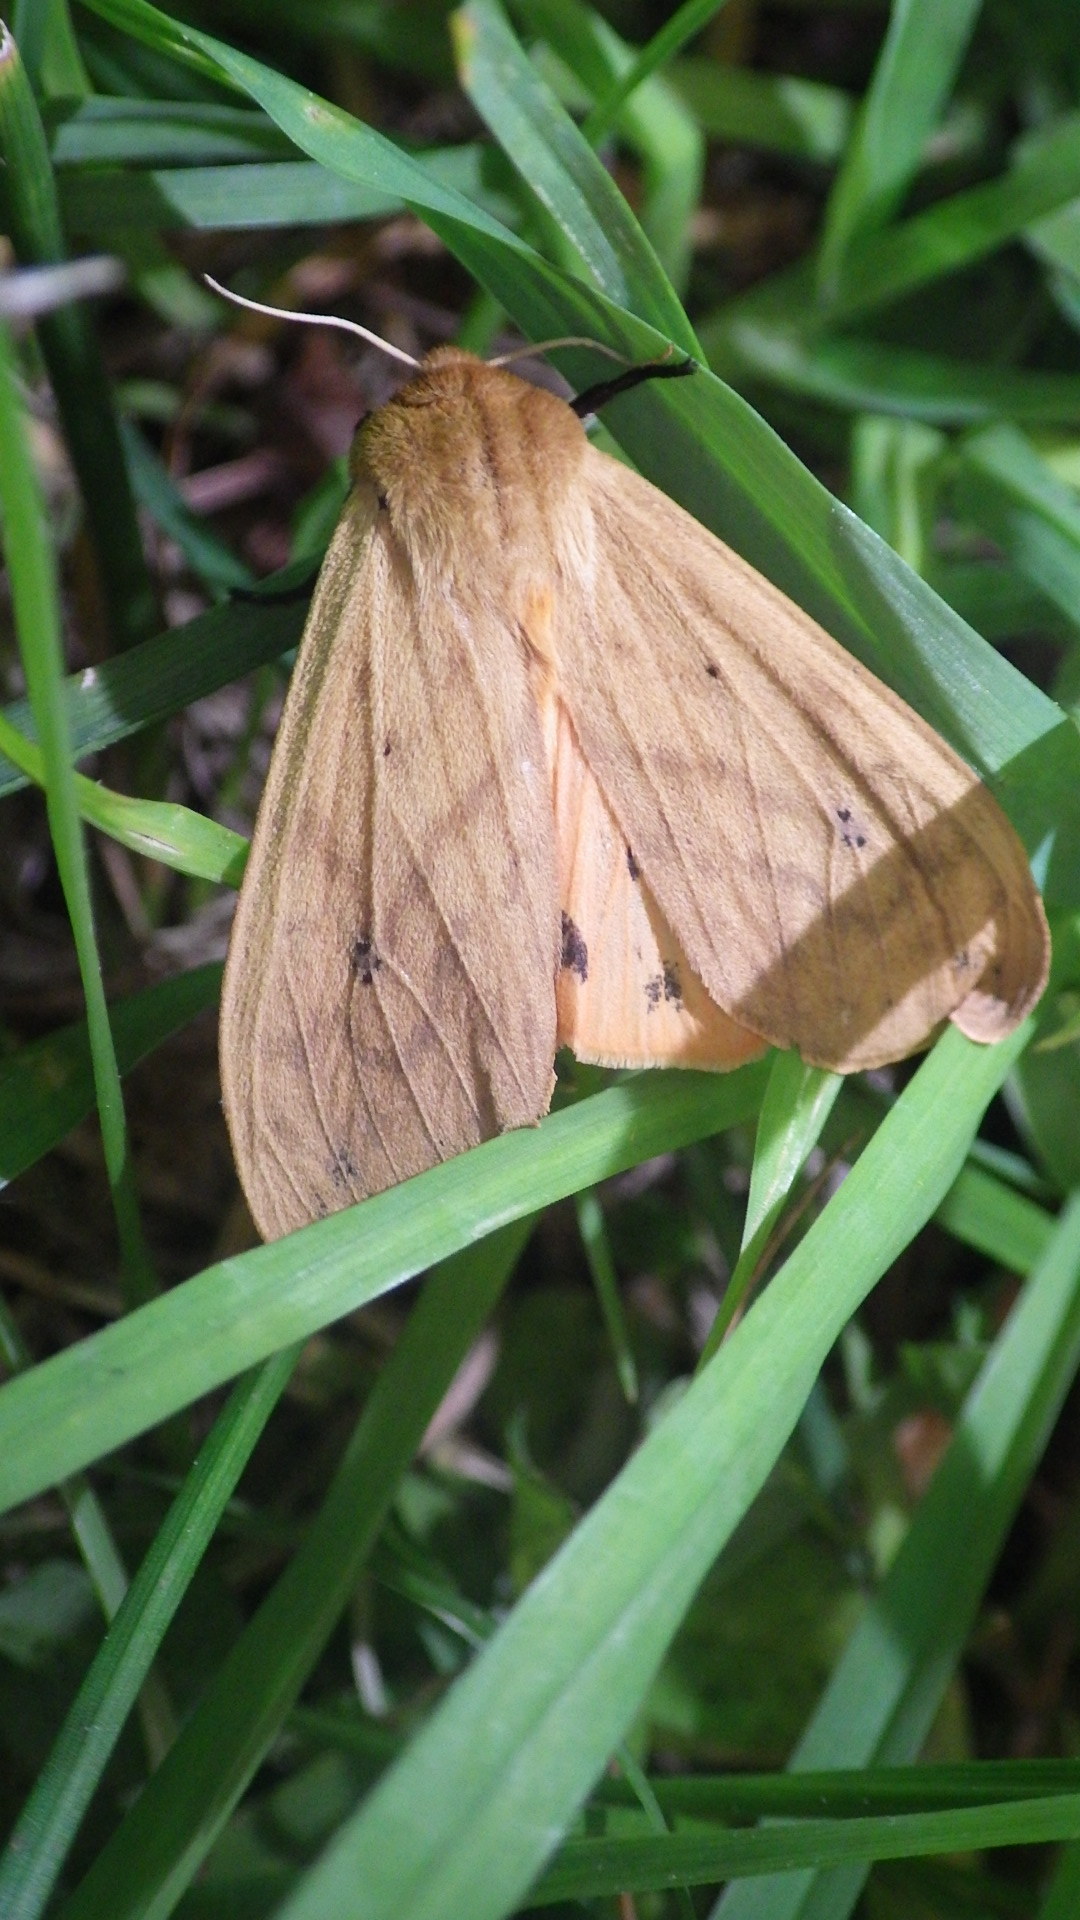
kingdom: Animalia
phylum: Arthropoda
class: Insecta
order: Lepidoptera
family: Erebidae
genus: Pyrrharctia
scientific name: Pyrrharctia isabella
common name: Isabella tiger moth
